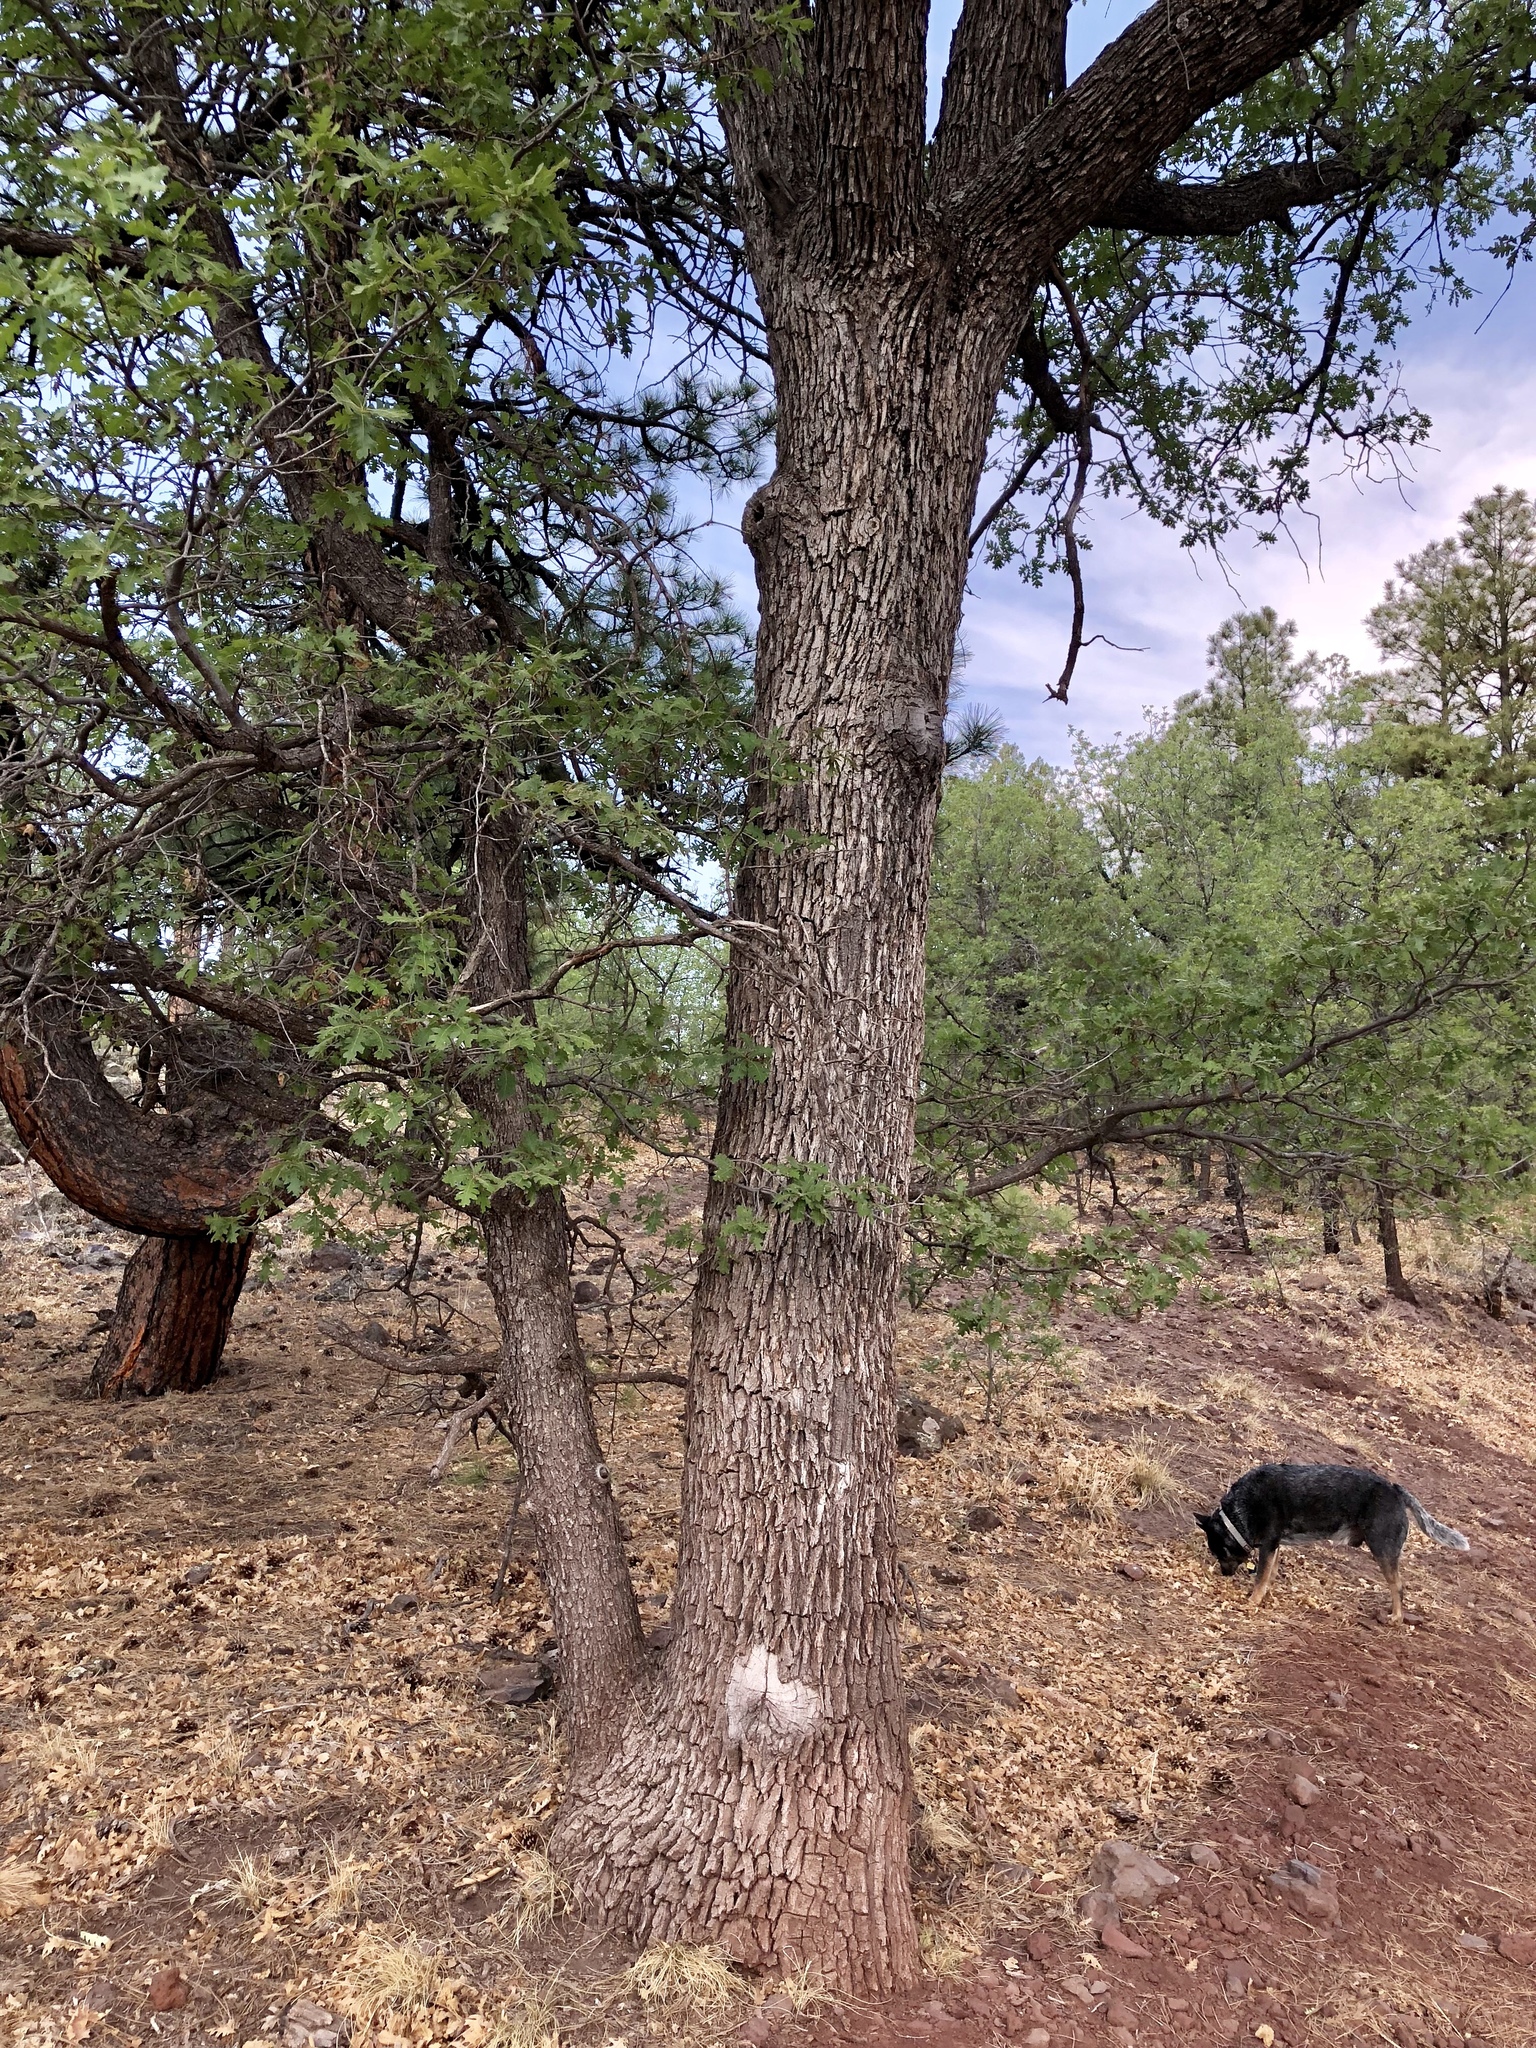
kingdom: Plantae
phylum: Tracheophyta
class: Magnoliopsida
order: Fagales
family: Fagaceae
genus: Quercus
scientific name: Quercus gambelii
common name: Gambel oak
